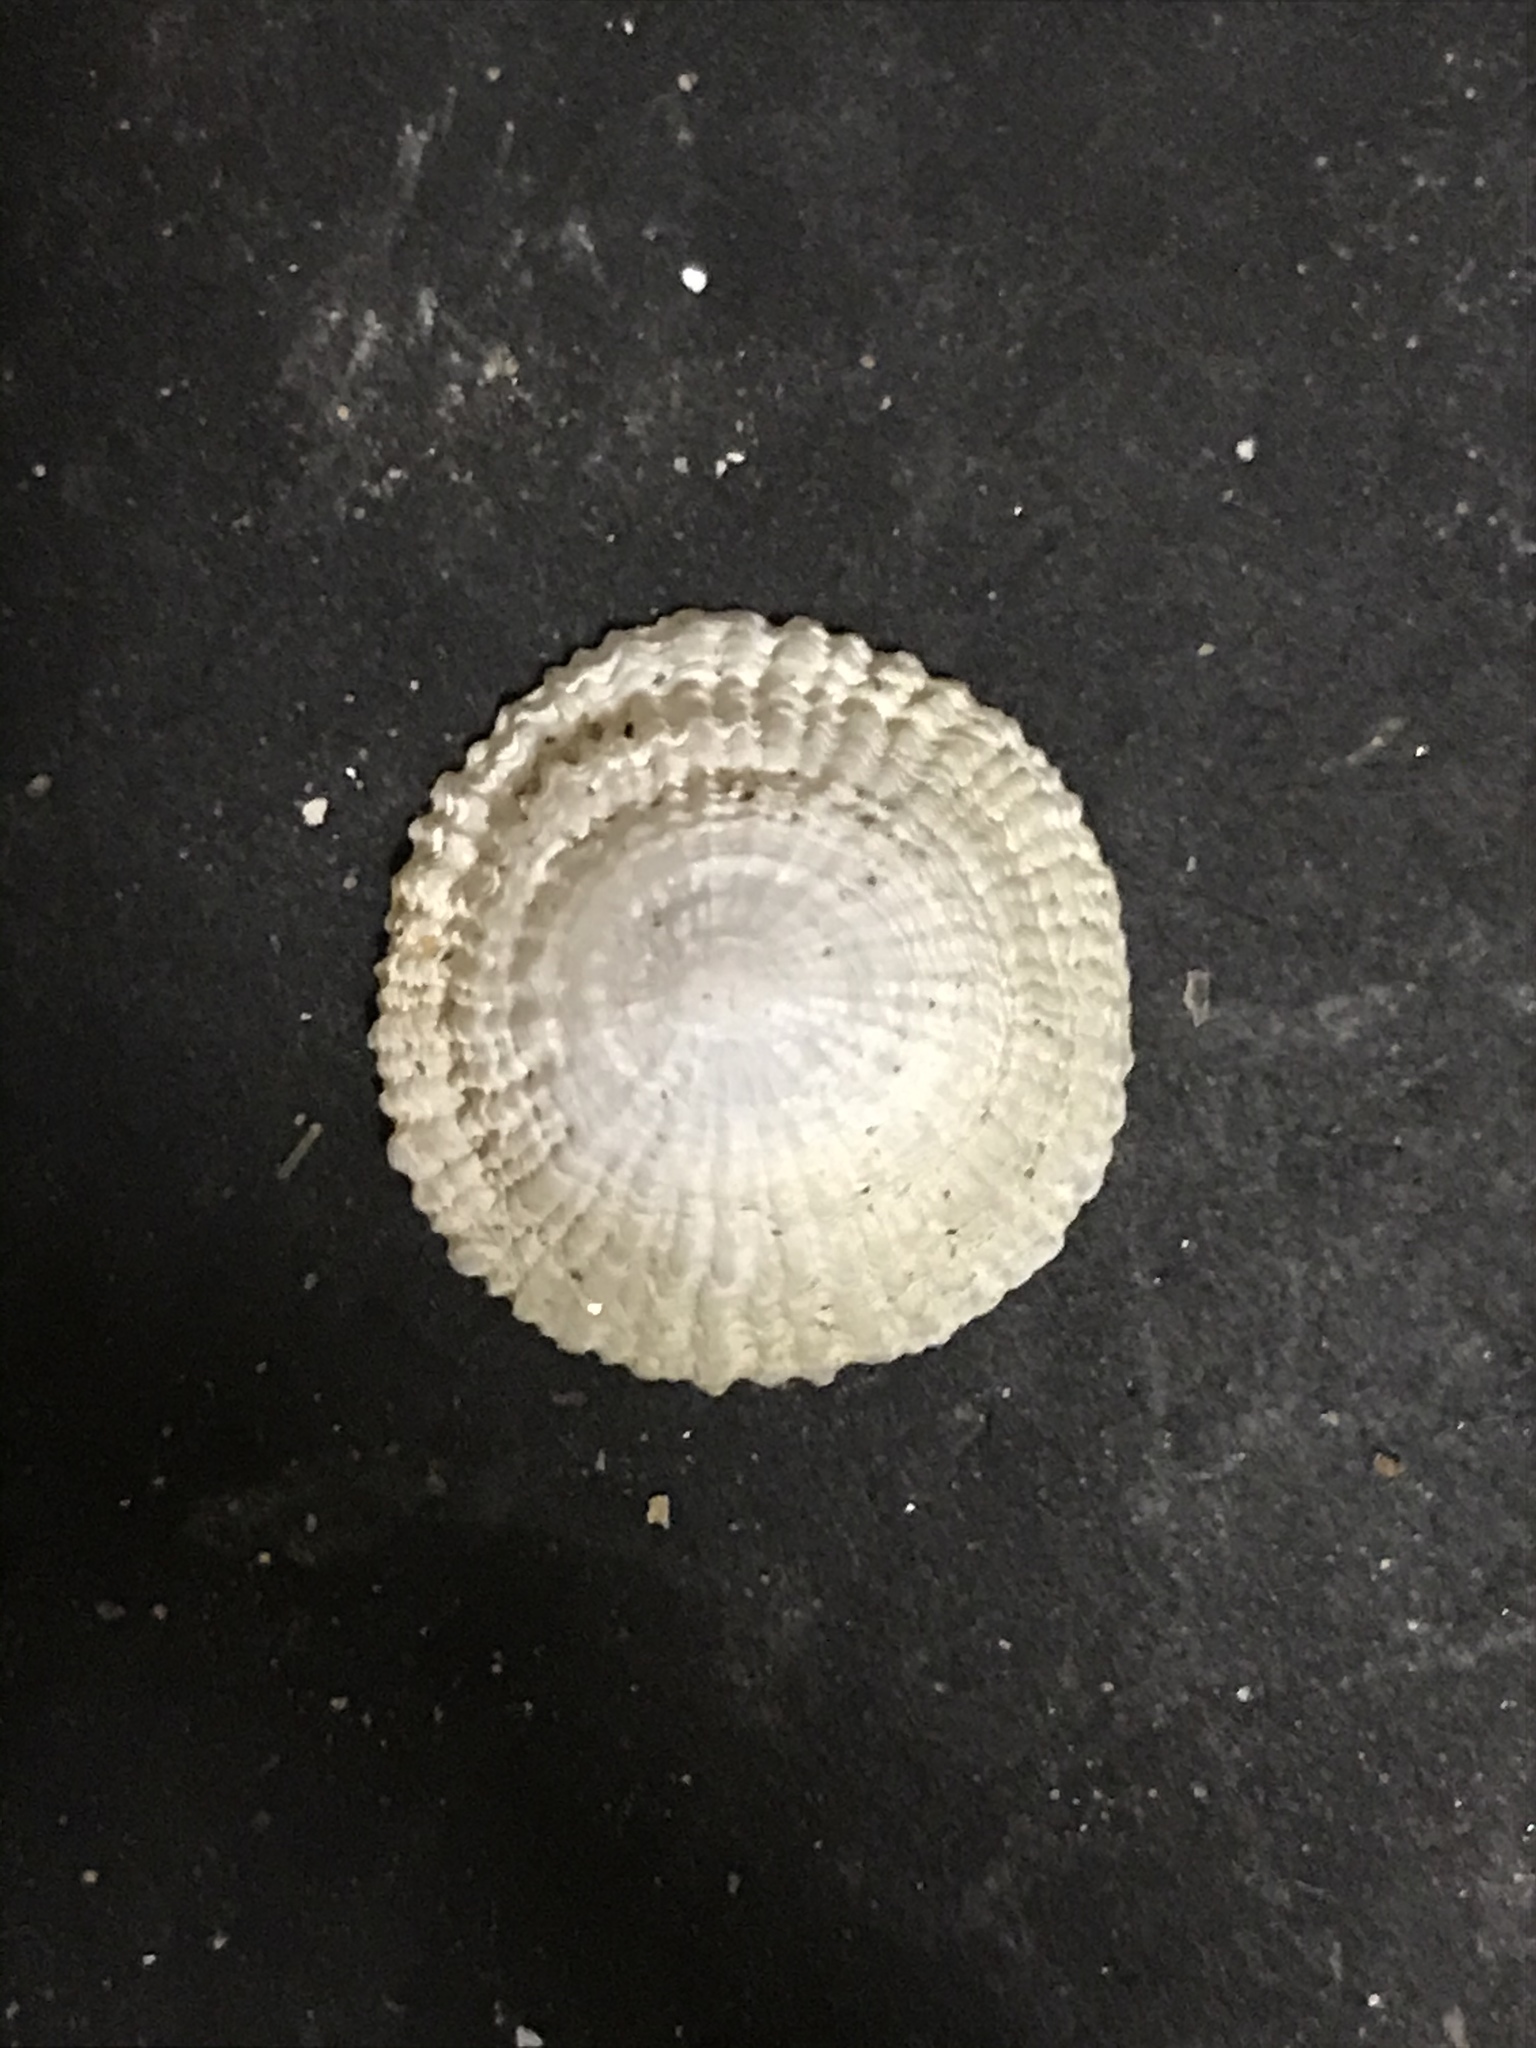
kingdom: Animalia
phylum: Mollusca
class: Gastropoda
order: Ellobiida
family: Trimusculidae
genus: Trimusculus
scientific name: Trimusculus reticulatus
